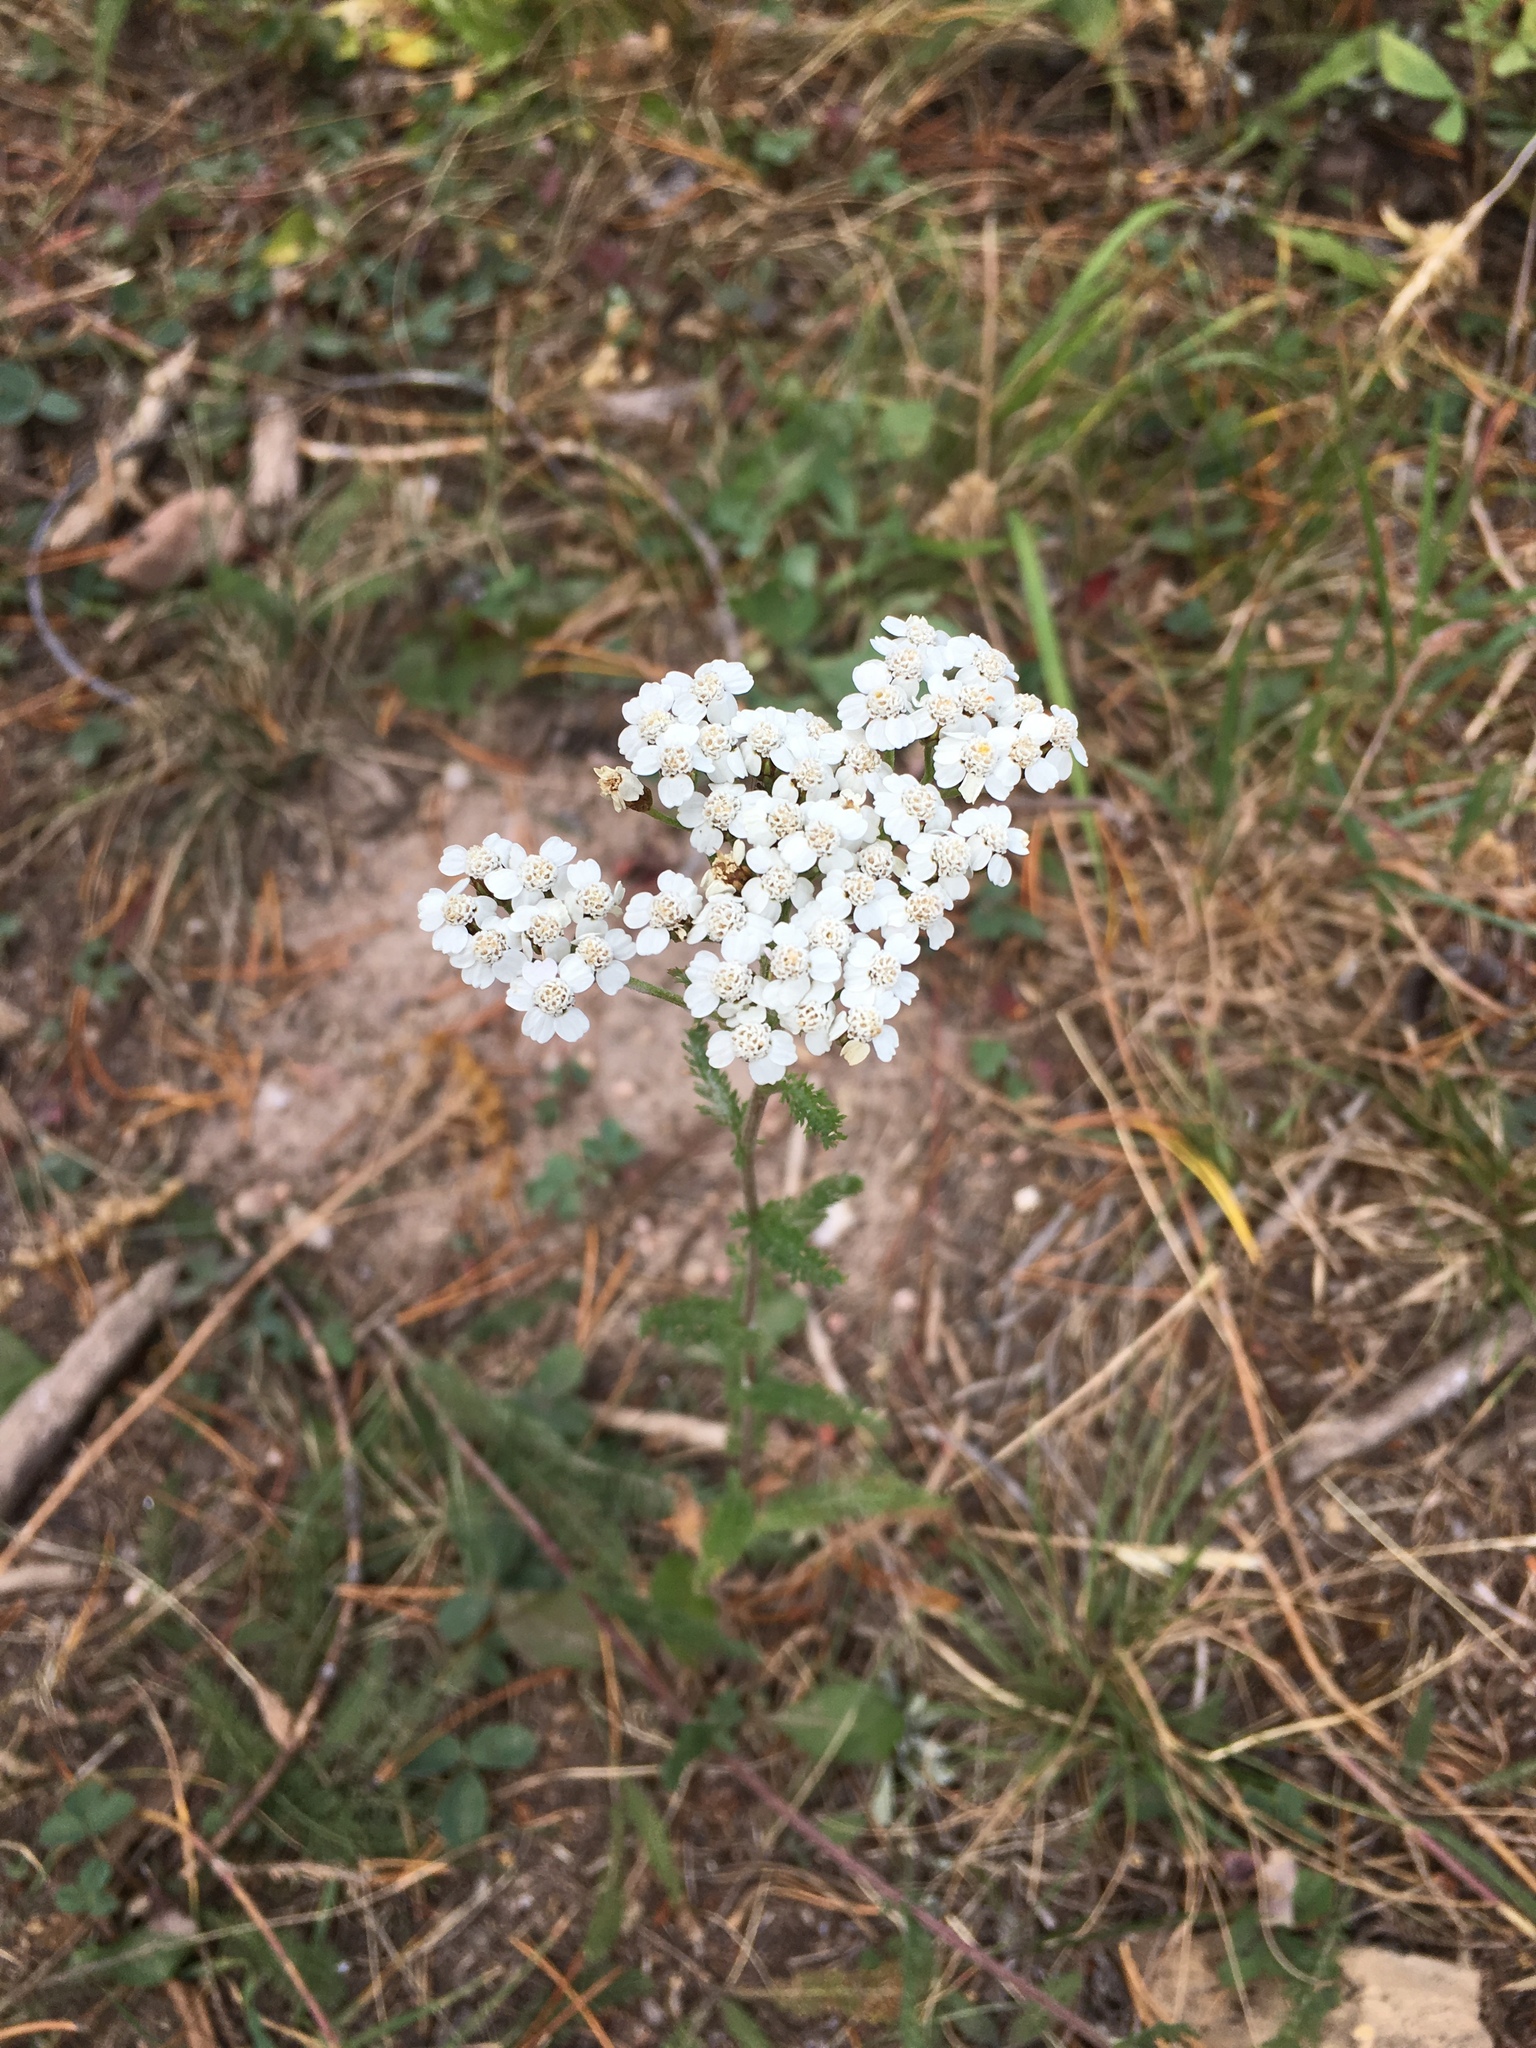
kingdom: Plantae
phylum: Tracheophyta
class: Magnoliopsida
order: Asterales
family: Asteraceae
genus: Achillea
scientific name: Achillea millefolium
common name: Yarrow
